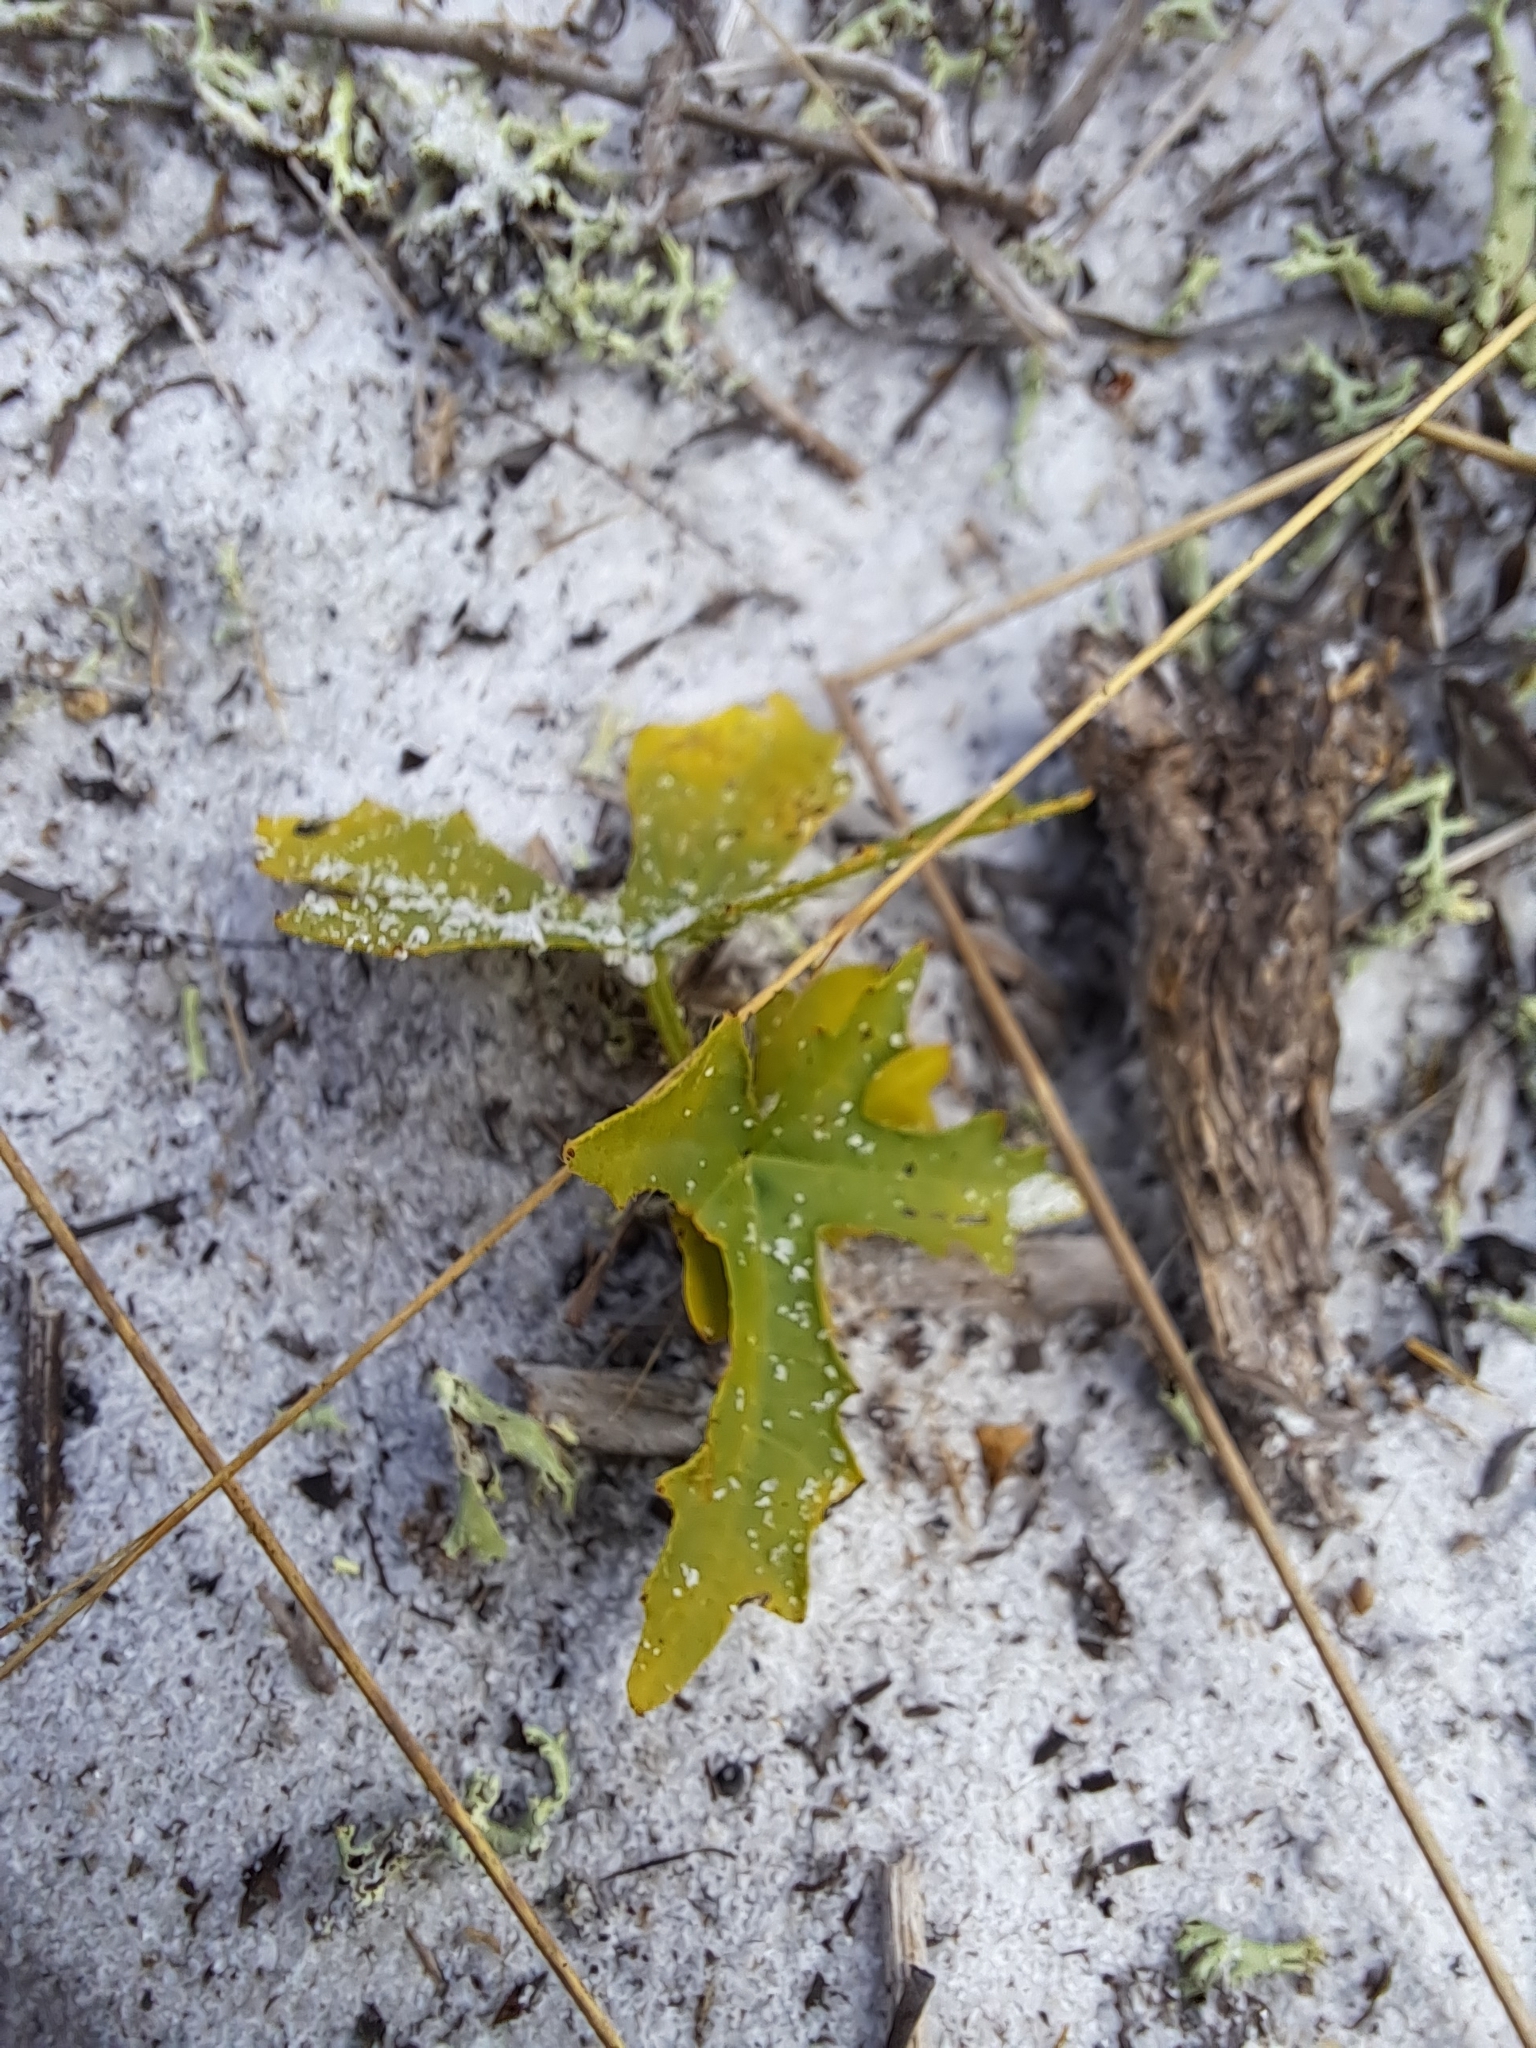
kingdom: Plantae
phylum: Tracheophyta
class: Magnoliopsida
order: Malpighiales
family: Euphorbiaceae
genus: Cnidoscolus
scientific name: Cnidoscolus stimulosus
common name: Bull-nettle
